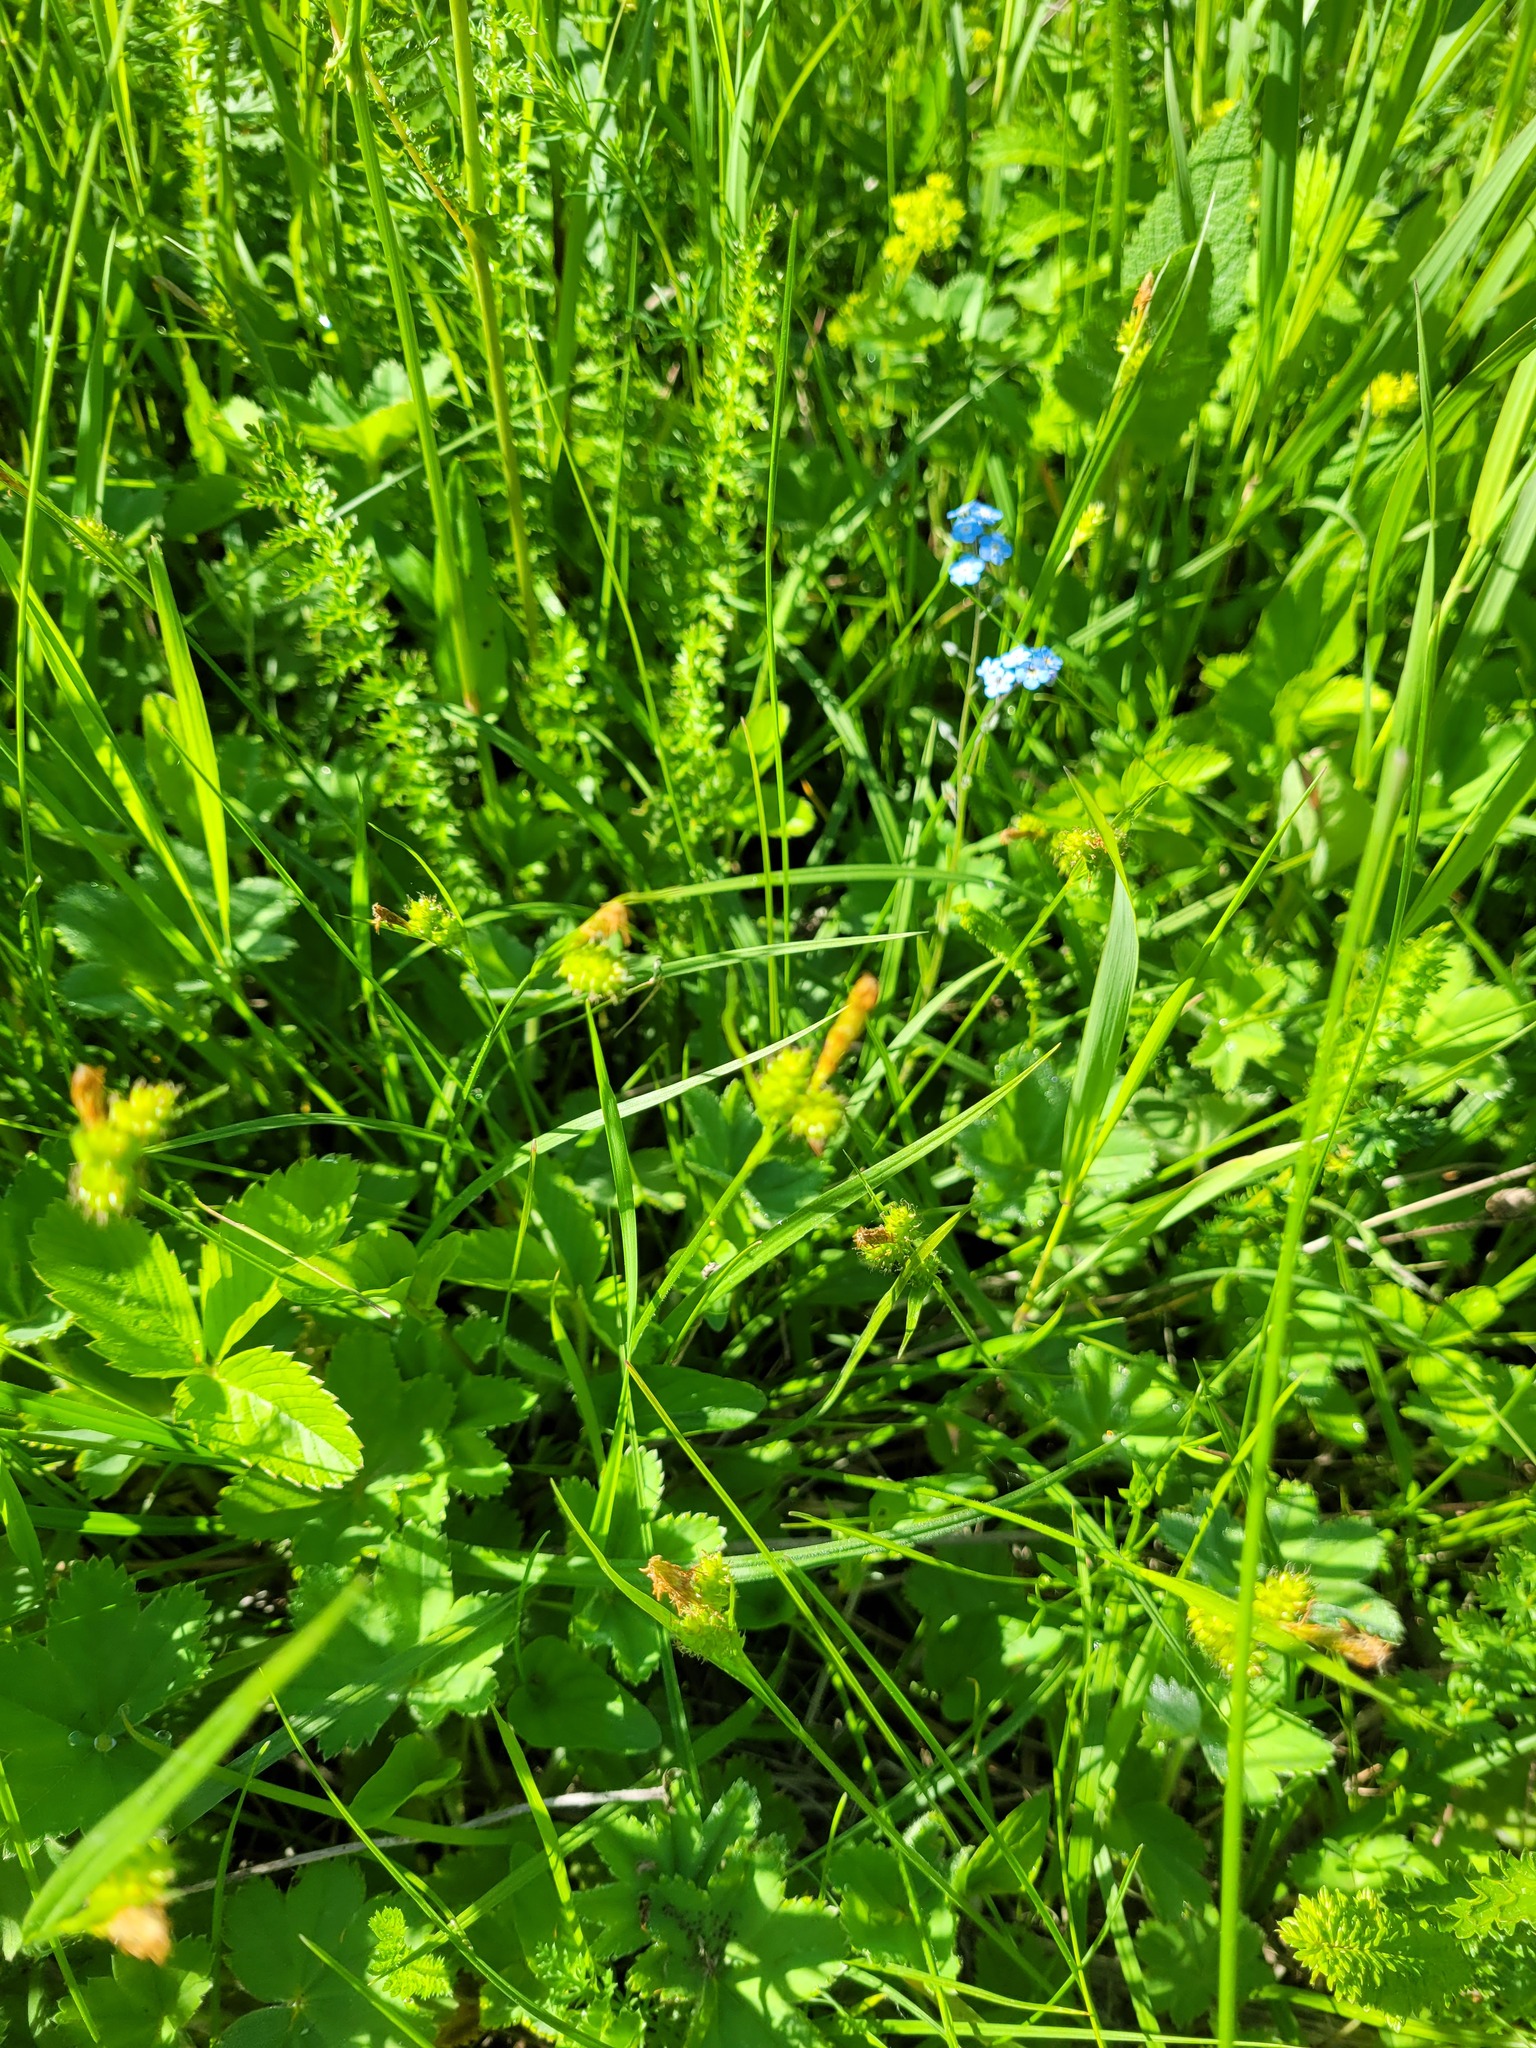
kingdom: Plantae
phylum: Tracheophyta
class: Liliopsida
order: Poales
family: Cyperaceae
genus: Carex
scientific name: Carex pallescens
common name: Pale sedge
